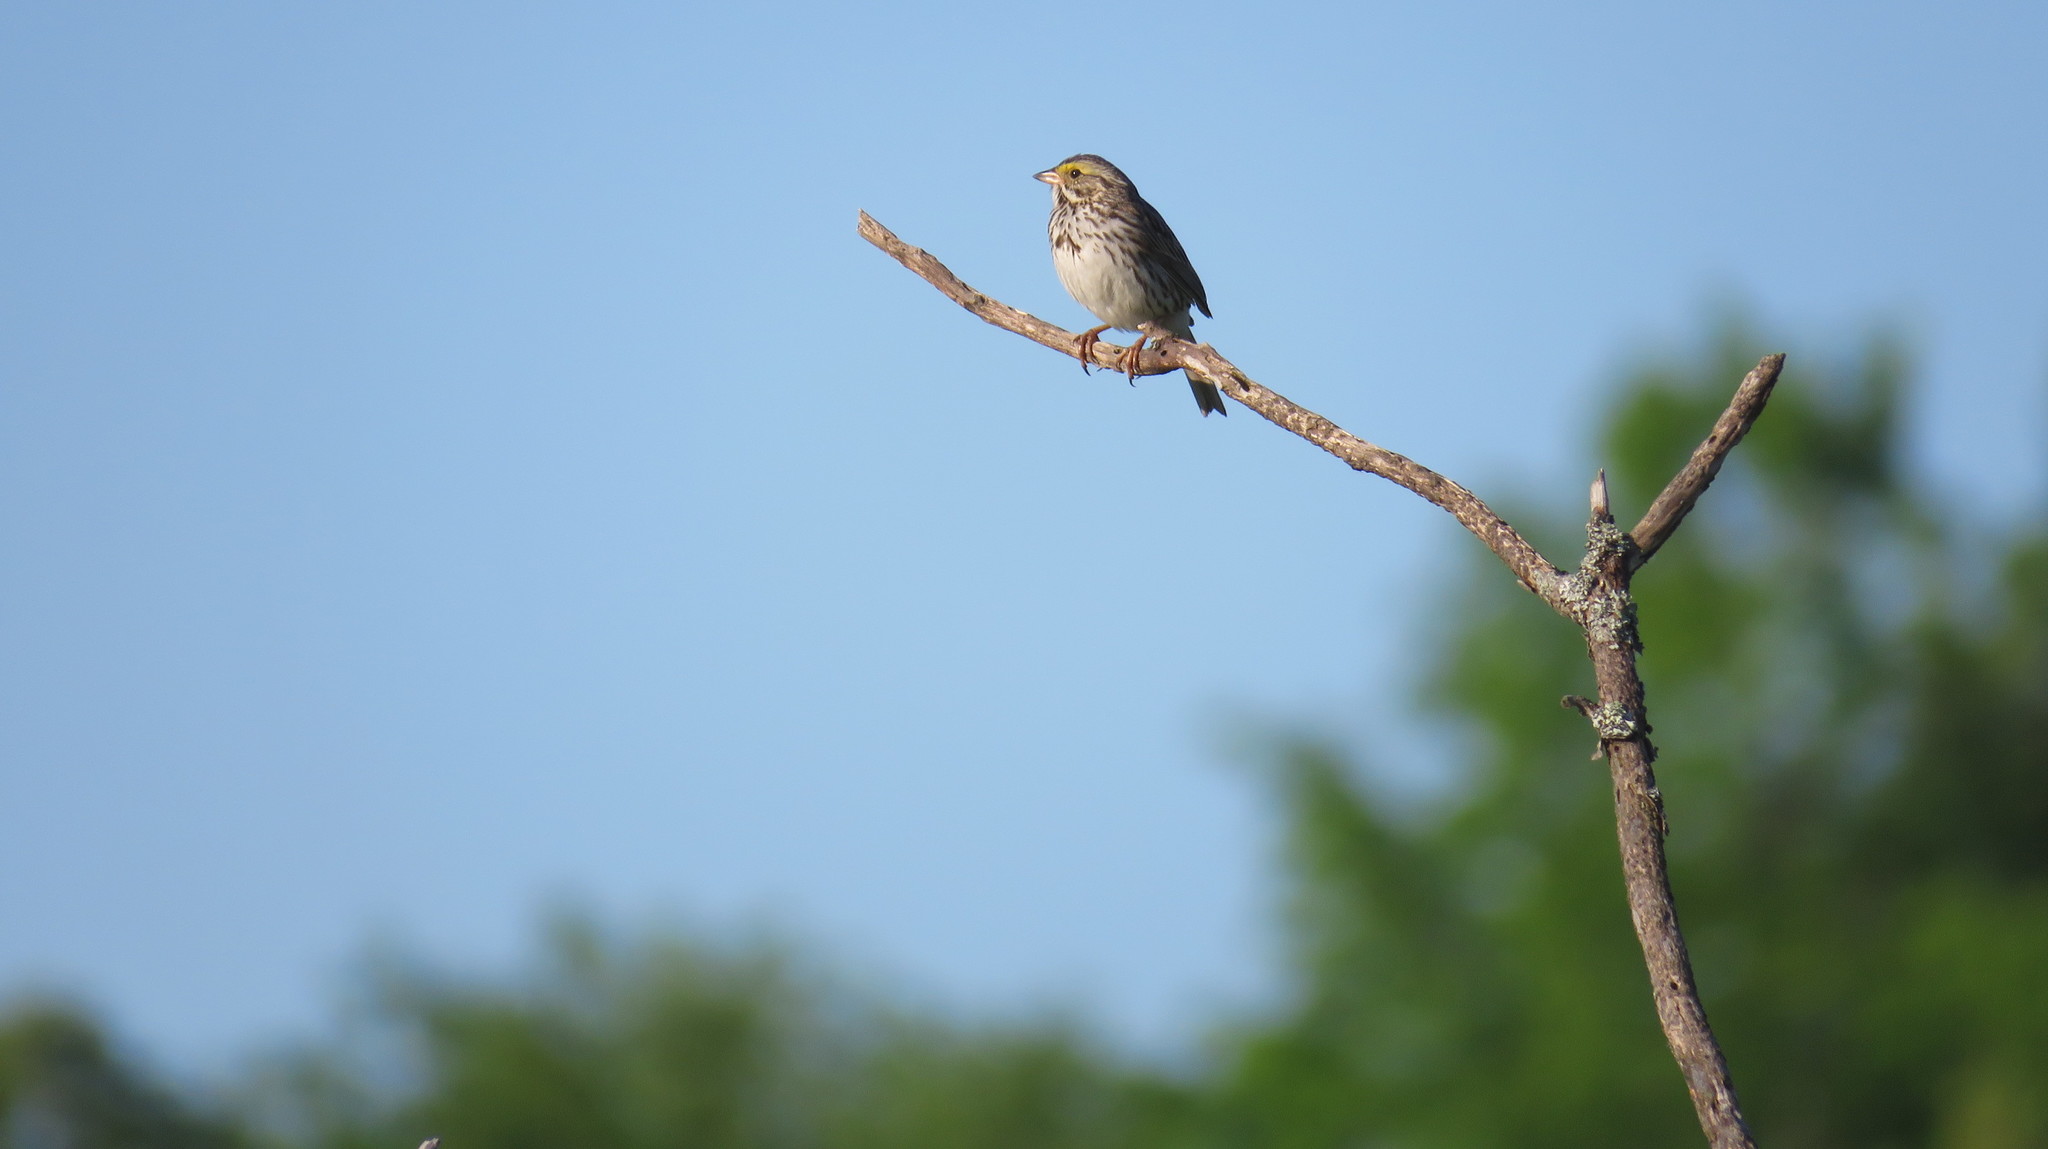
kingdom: Animalia
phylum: Chordata
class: Aves
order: Passeriformes
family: Passerellidae
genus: Passerculus
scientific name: Passerculus sandwichensis
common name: Savannah sparrow
